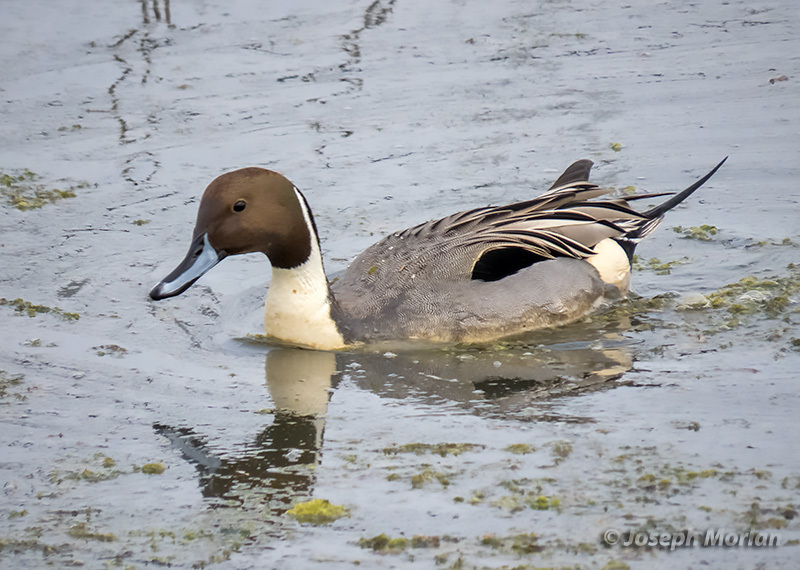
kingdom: Animalia
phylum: Chordata
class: Aves
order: Anseriformes
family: Anatidae
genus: Anas
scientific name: Anas acuta
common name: Northern pintail
